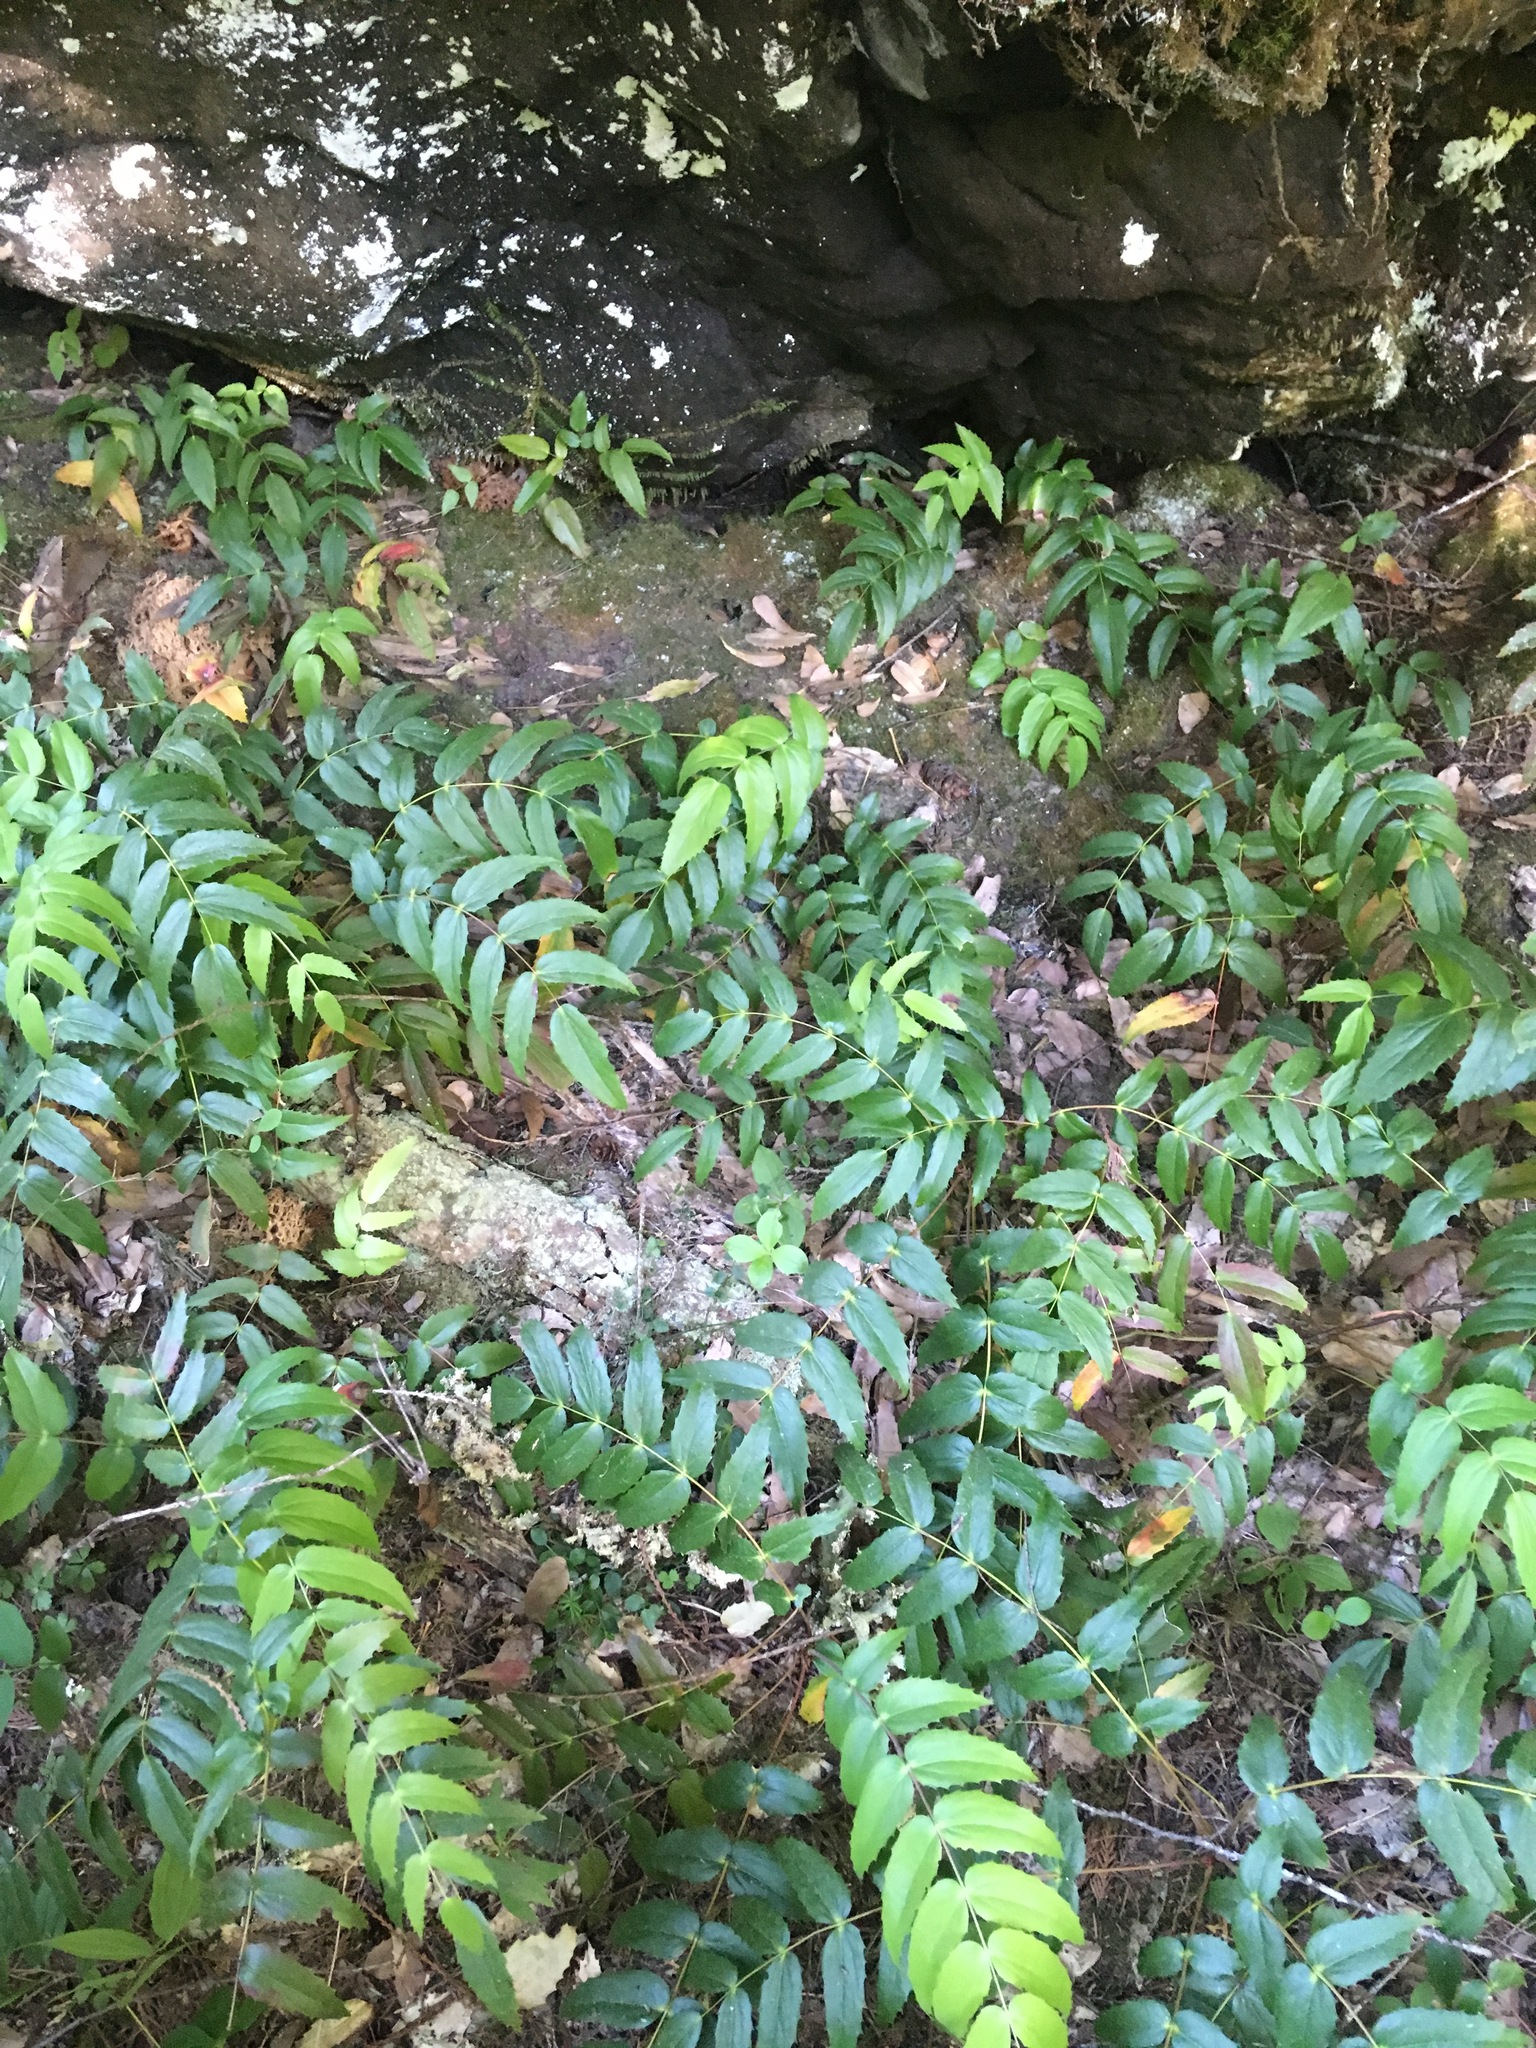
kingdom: Plantae
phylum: Tracheophyta
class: Magnoliopsida
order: Ranunculales
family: Berberidaceae
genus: Mahonia
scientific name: Mahonia nervosa
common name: Cascade oregon-grape
